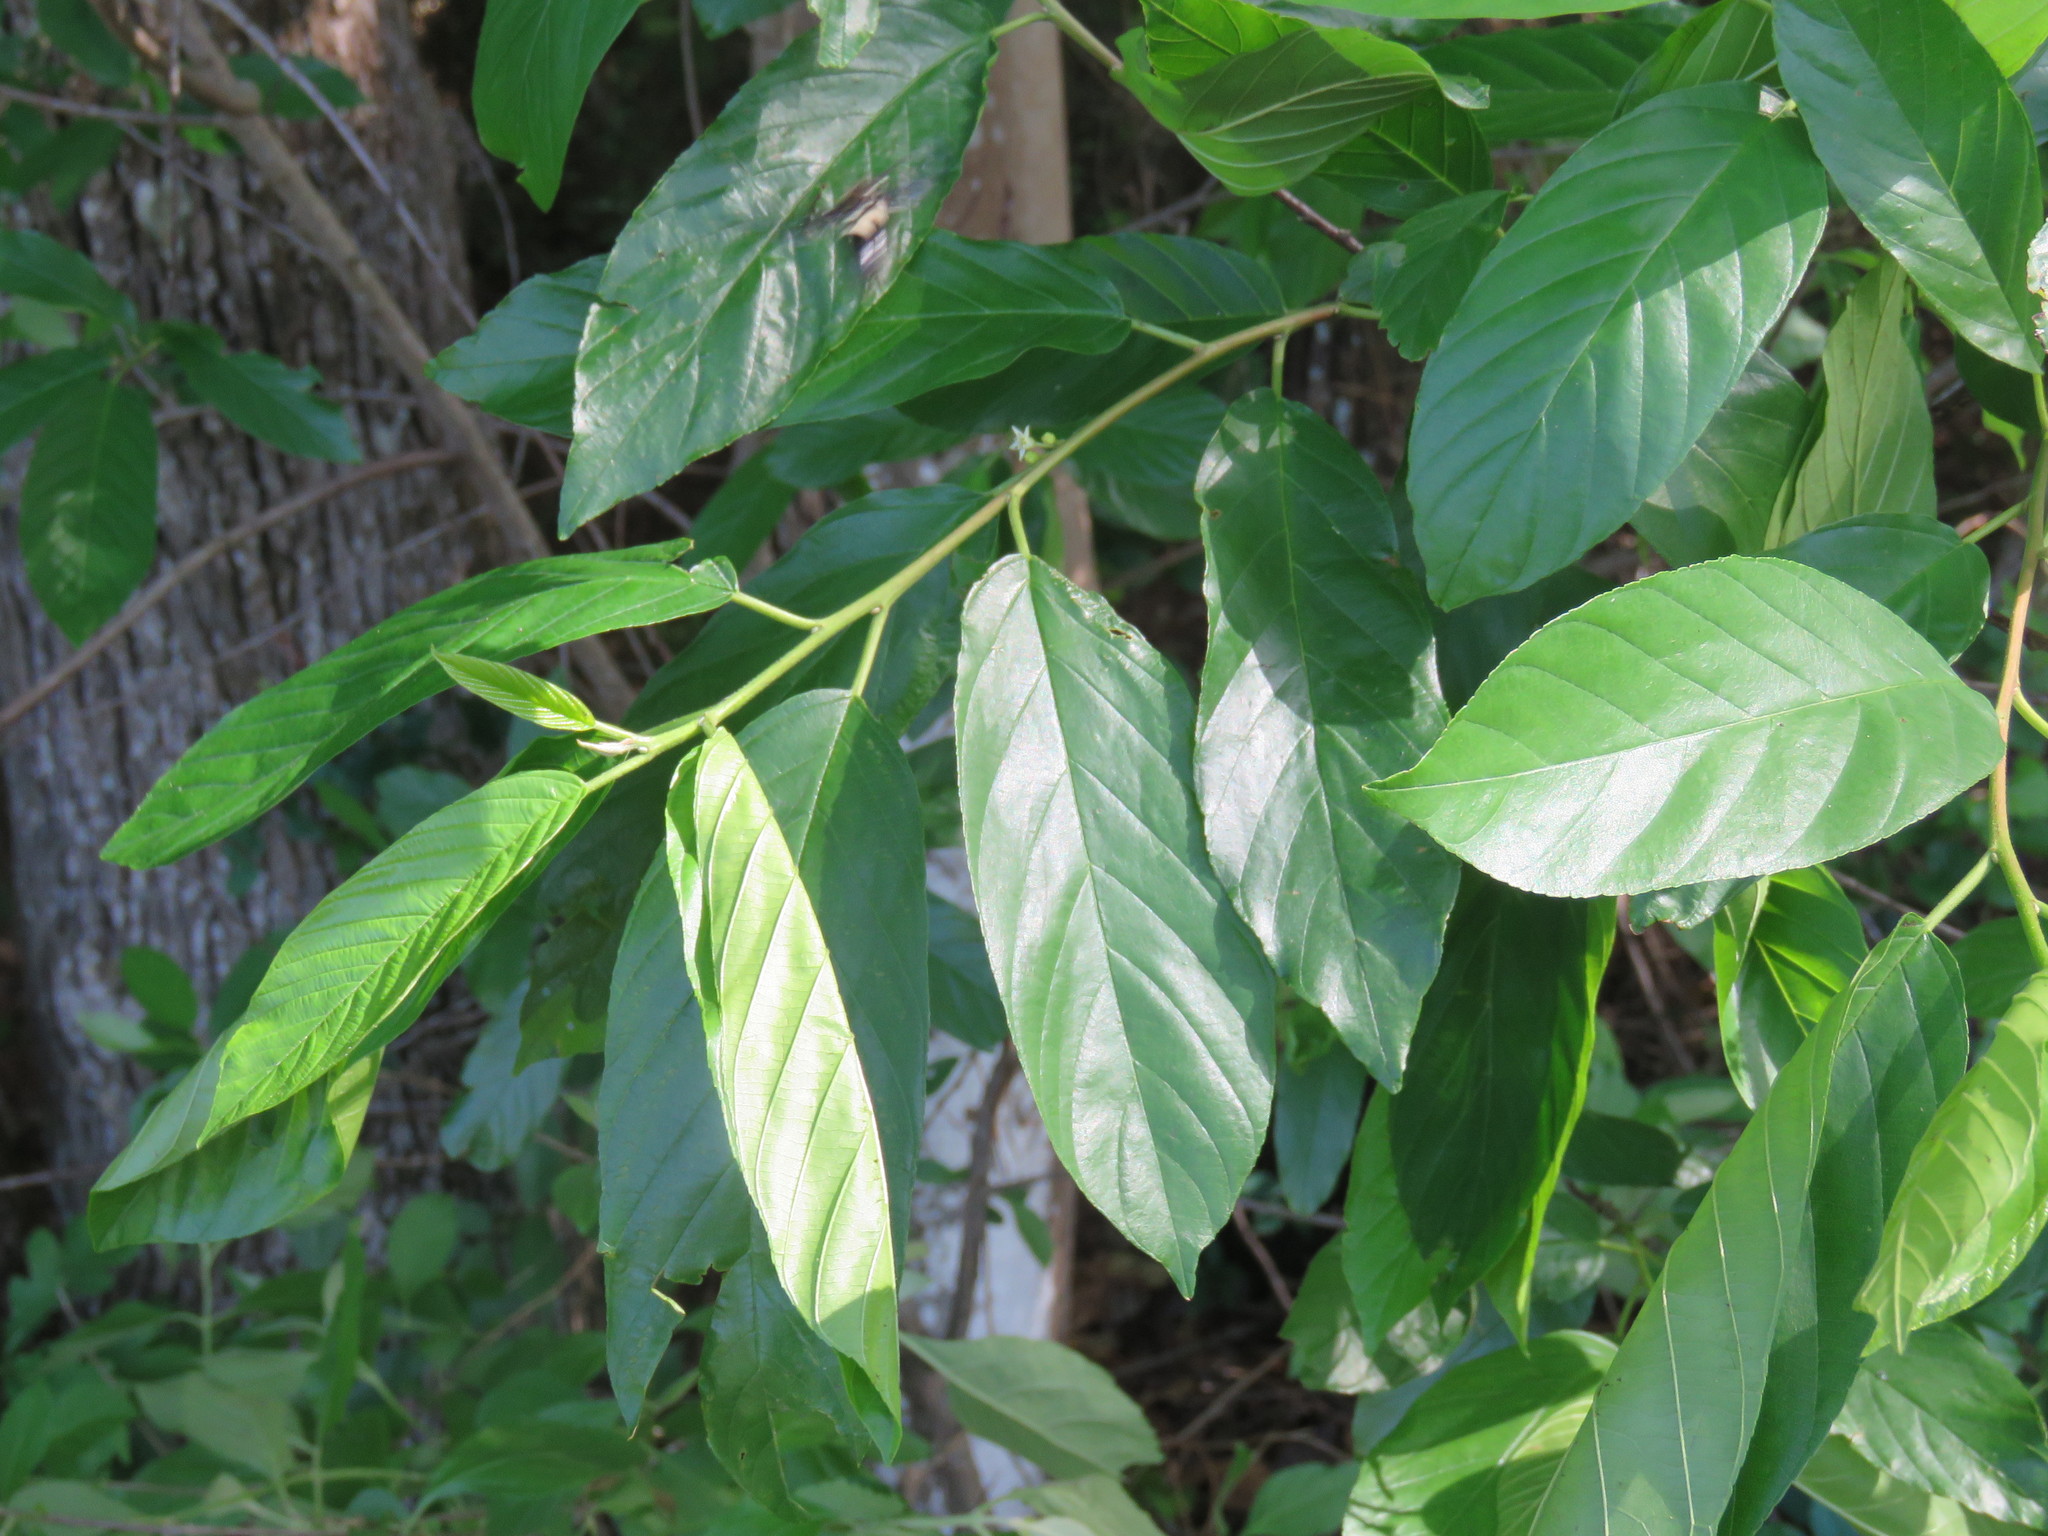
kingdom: Plantae
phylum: Tracheophyta
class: Magnoliopsida
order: Rosales
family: Rhamnaceae
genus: Frangula
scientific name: Frangula caroliniana
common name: Carolina buckthorn
